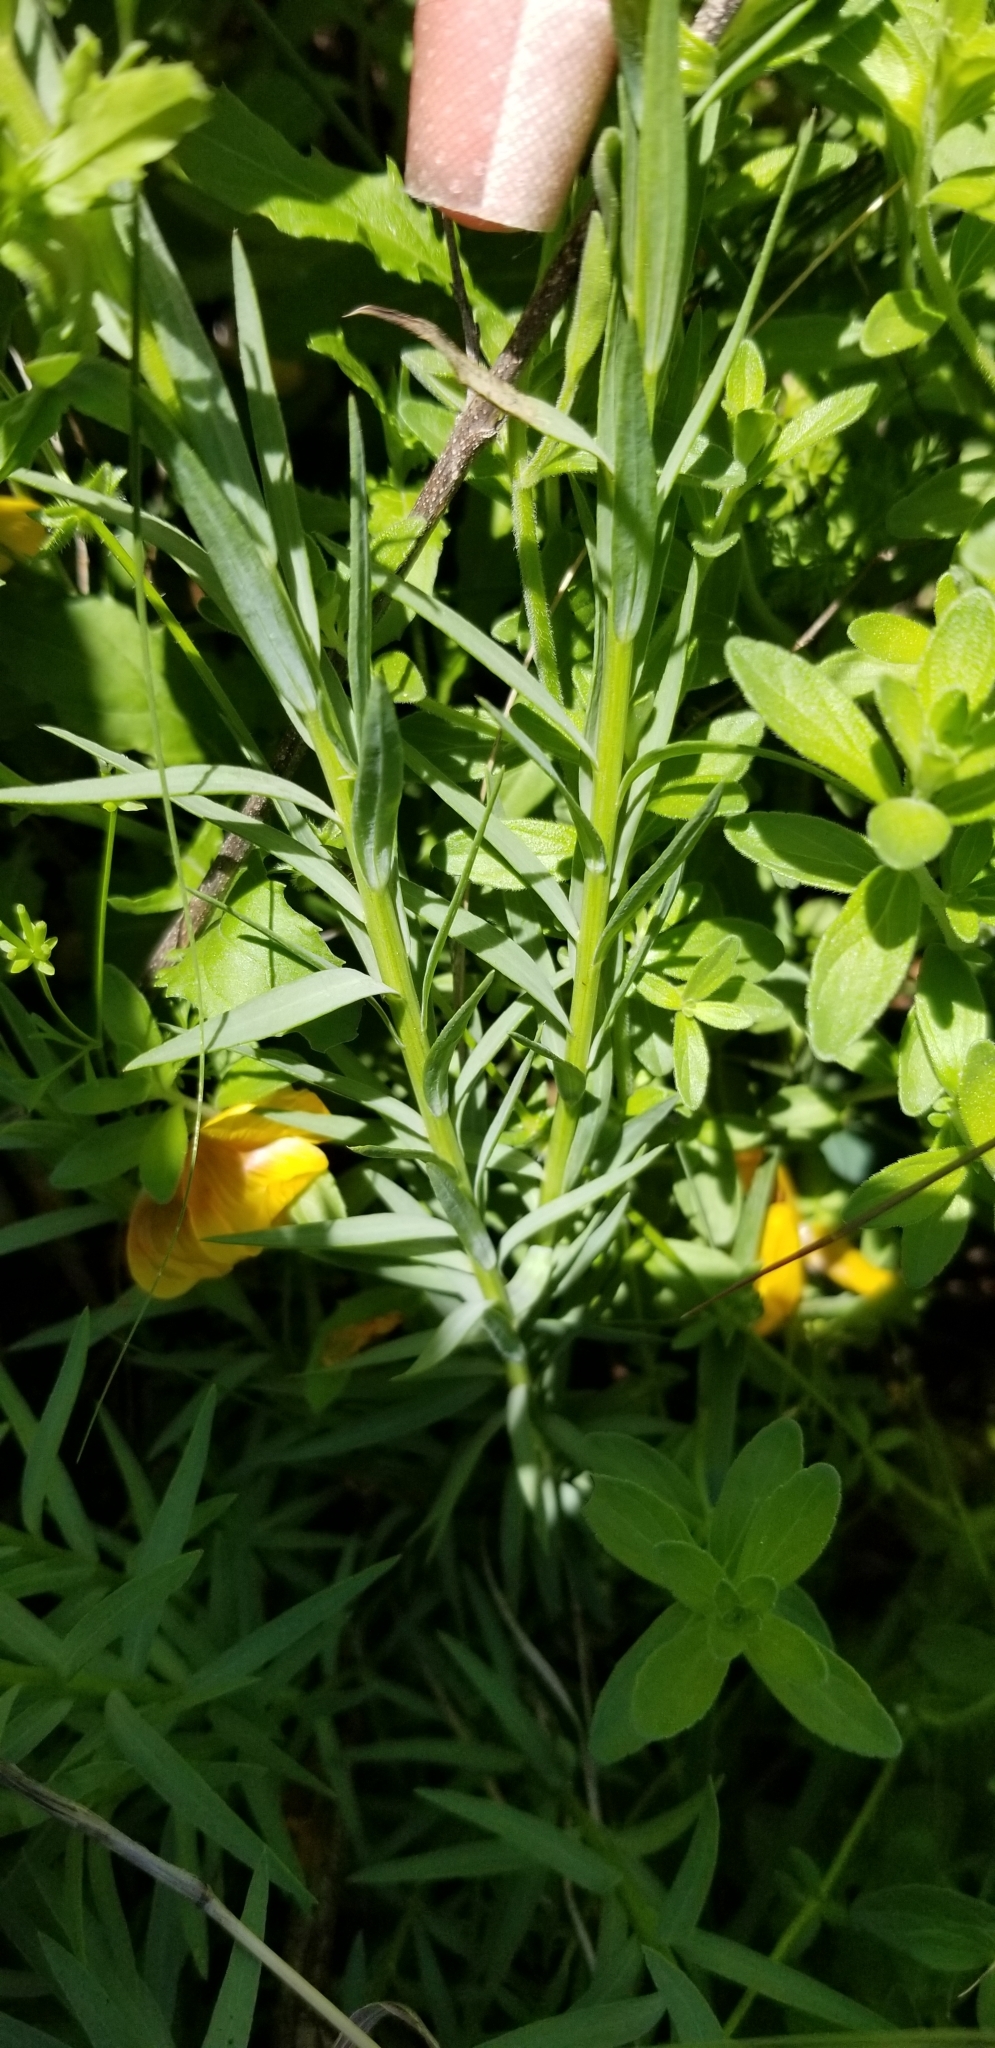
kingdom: Plantae
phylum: Tracheophyta
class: Magnoliopsida
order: Malpighiales
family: Linaceae
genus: Linum
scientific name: Linum rigidum
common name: Stiff-stem flax
